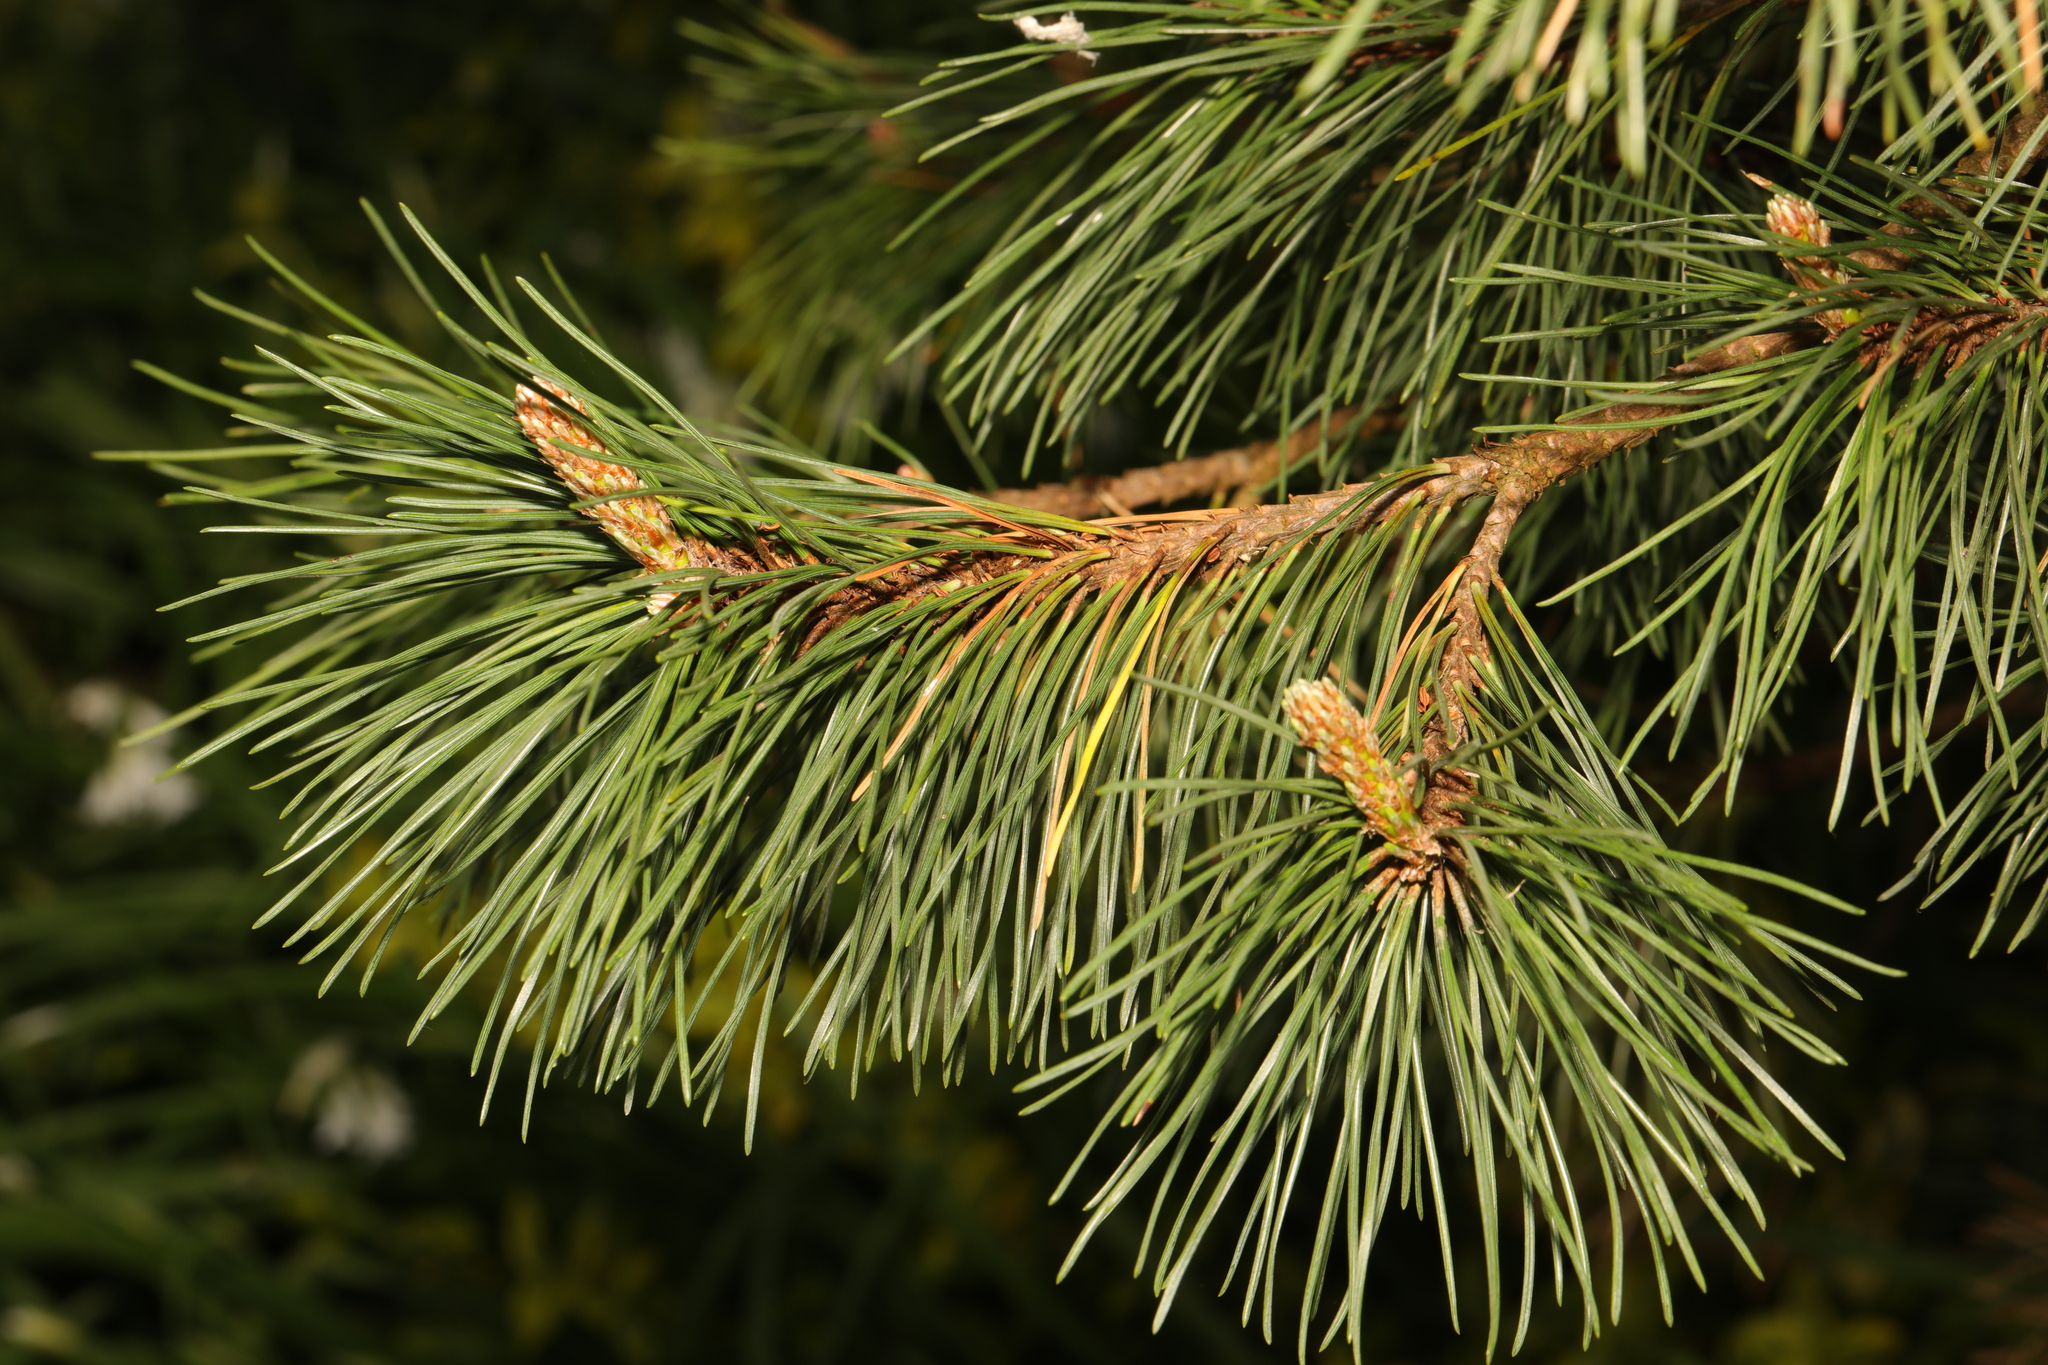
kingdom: Plantae
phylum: Tracheophyta
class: Pinopsida
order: Pinales
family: Pinaceae
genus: Pinus
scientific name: Pinus nigra
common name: Austrian pine
